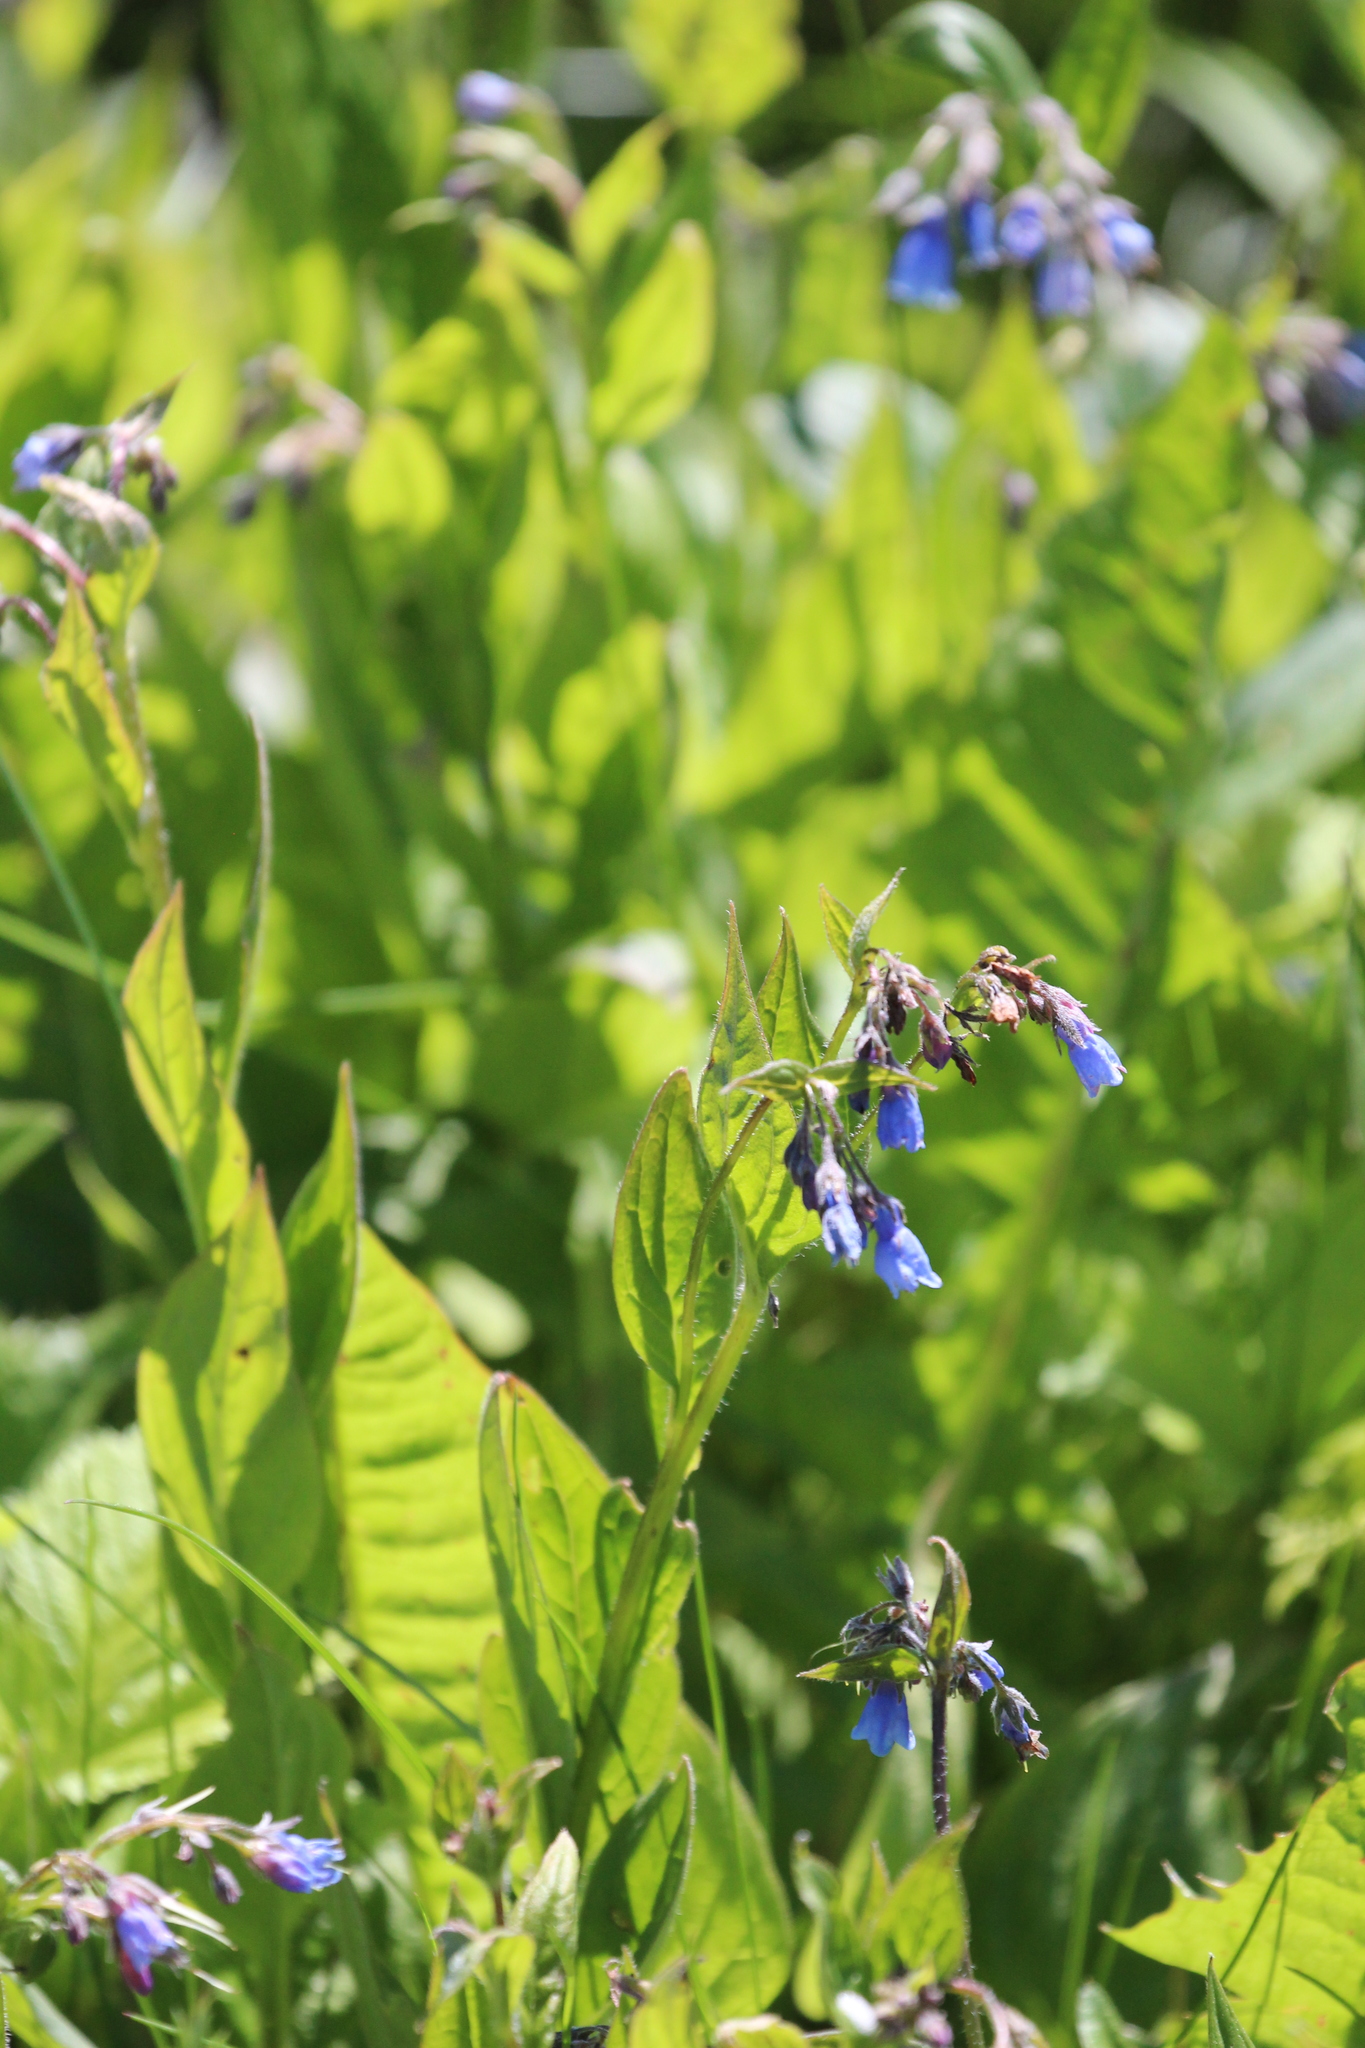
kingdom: Plantae
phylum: Tracheophyta
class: Magnoliopsida
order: Boraginales
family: Boraginaceae
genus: Mertensia
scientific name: Mertensia paniculata
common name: Panicled bluebells
